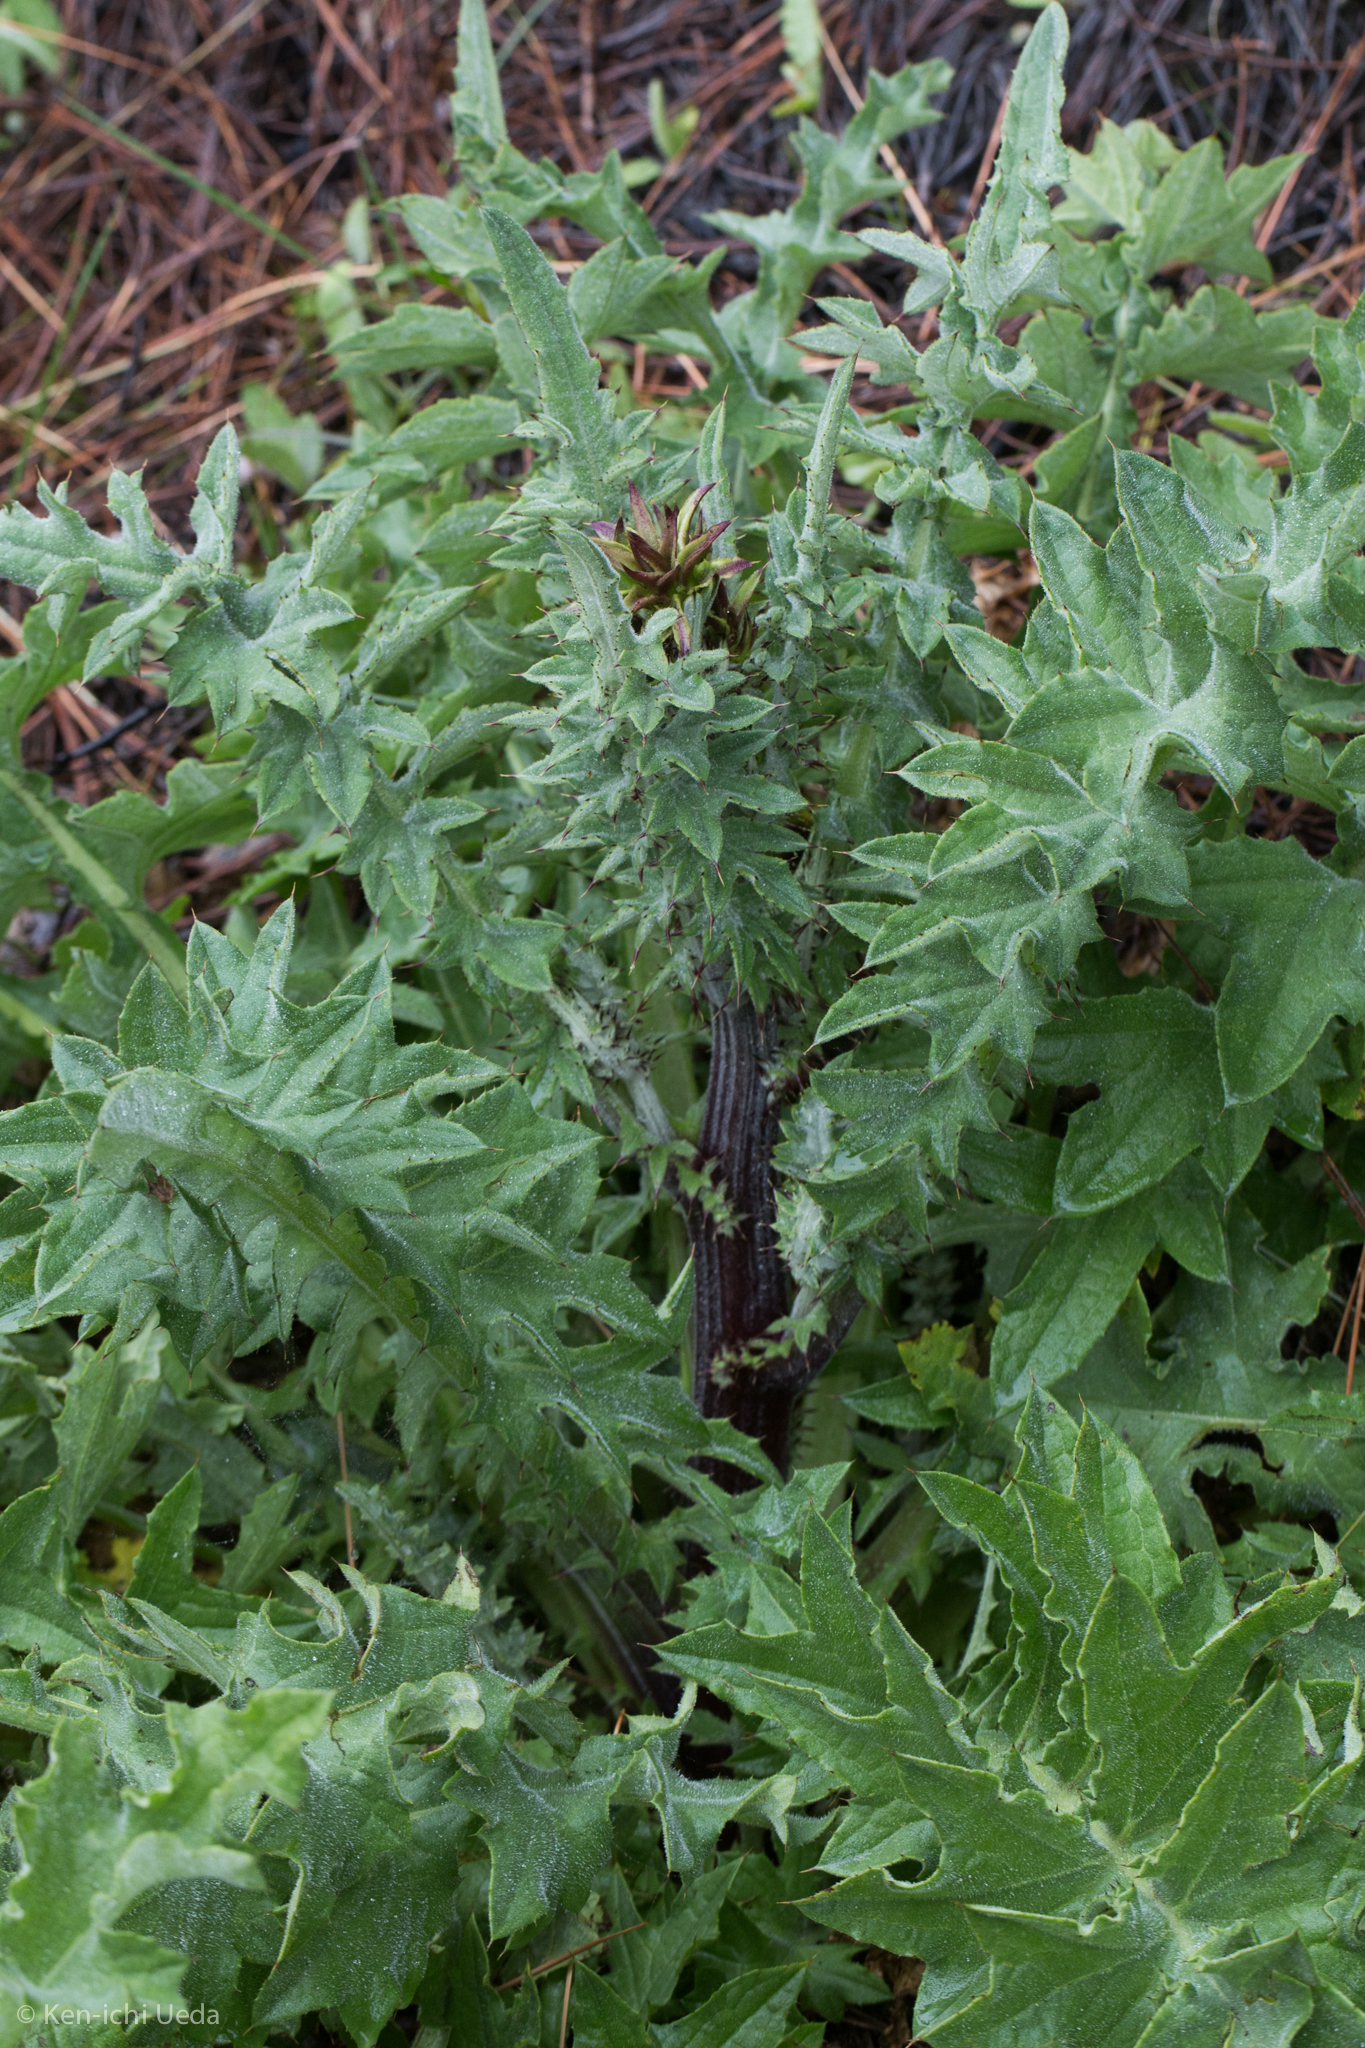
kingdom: Plantae
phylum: Tracheophyta
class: Magnoliopsida
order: Asterales
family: Asteraceae
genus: Cirsium
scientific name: Cirsium fontinale
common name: Fountain thistle
